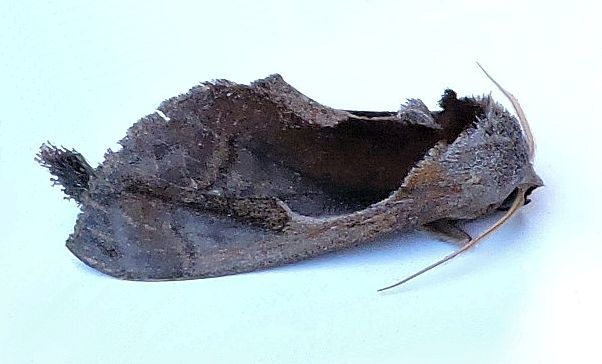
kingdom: Animalia
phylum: Arthropoda
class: Insecta
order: Lepidoptera
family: Notodontidae
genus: Crinodes
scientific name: Crinodes biedermani
